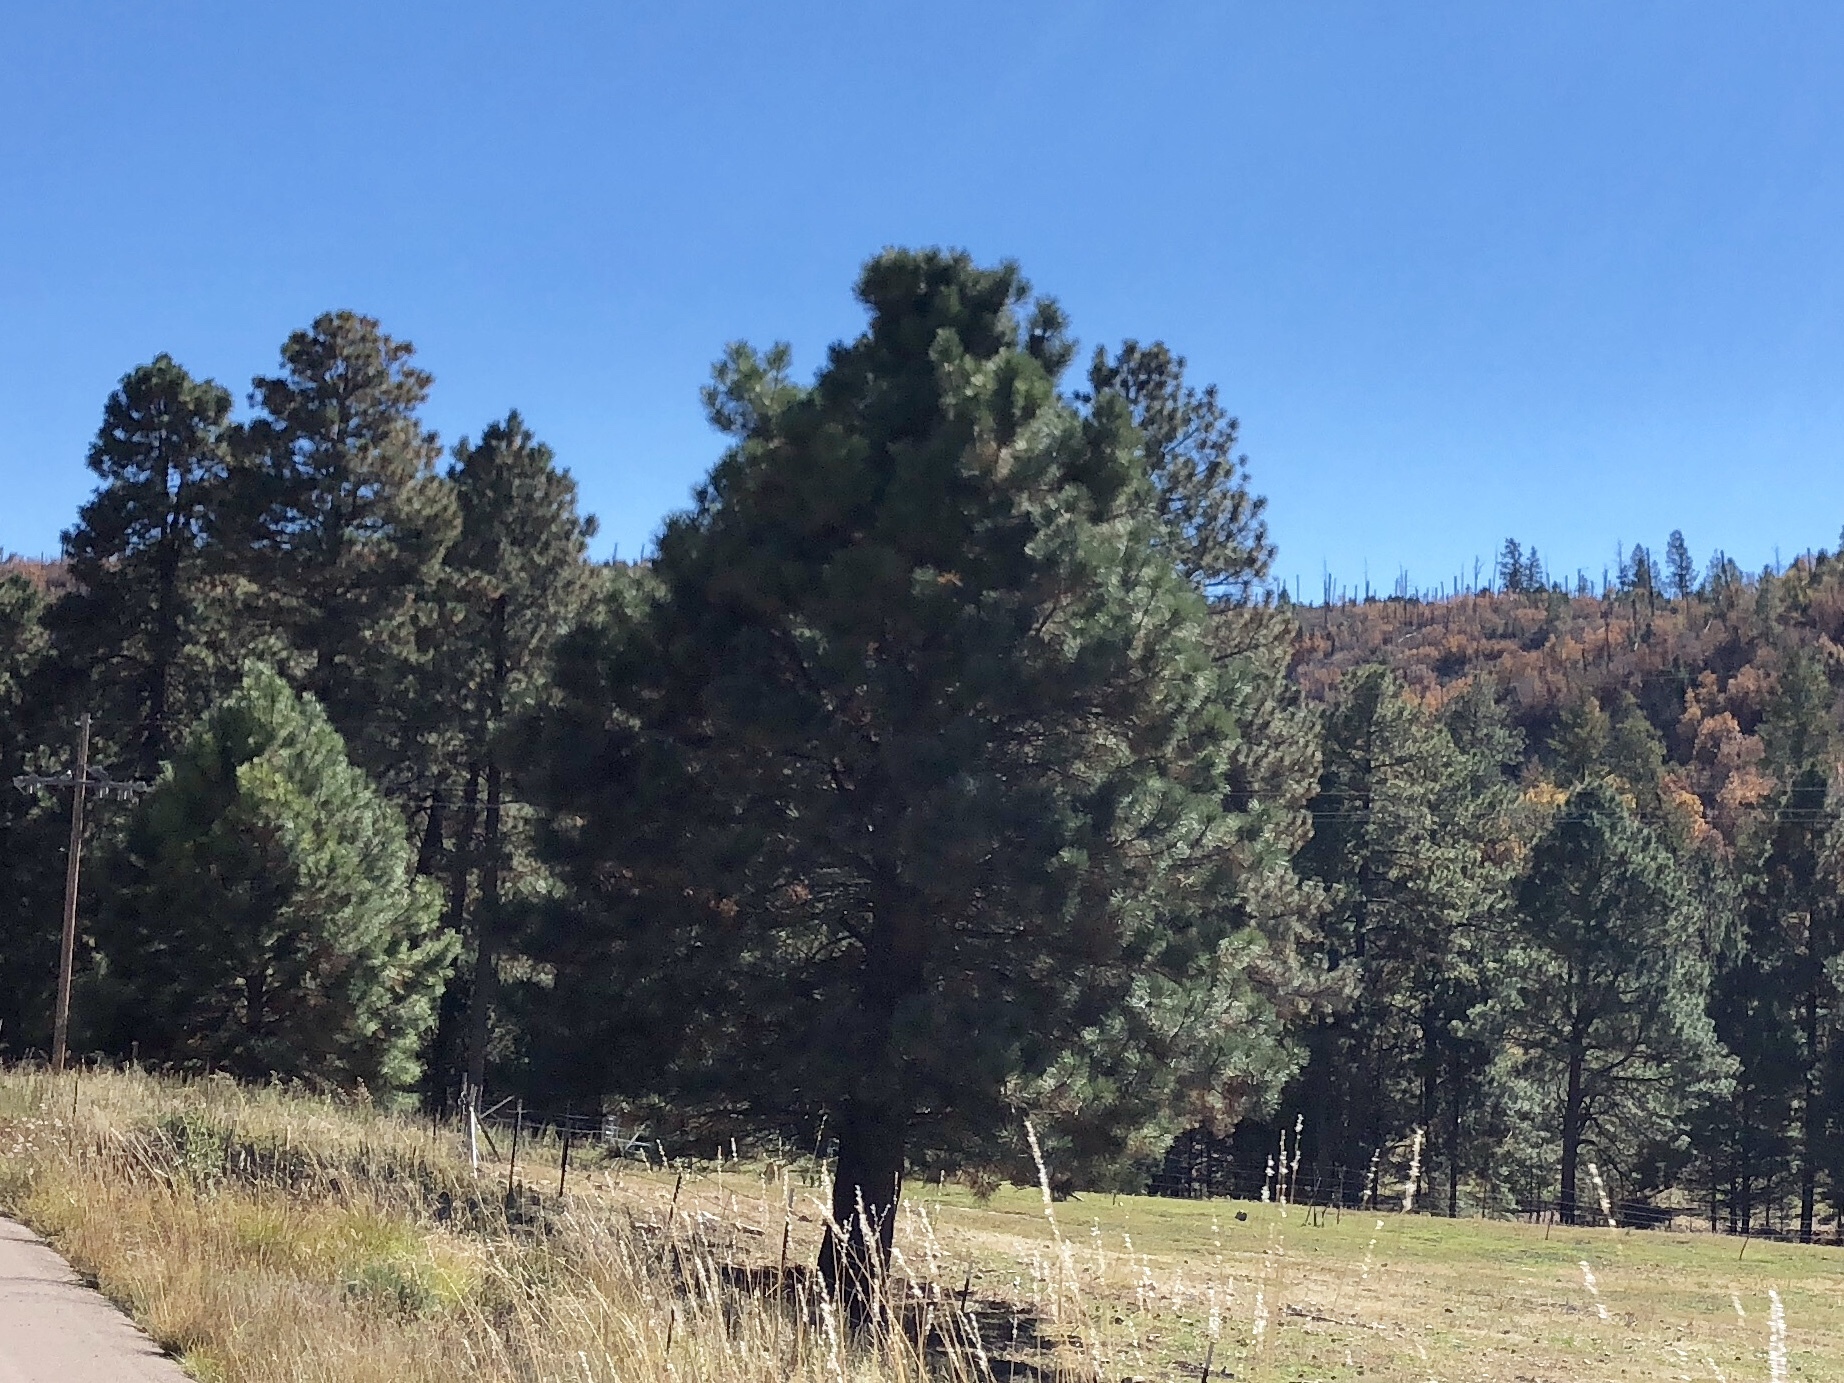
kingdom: Plantae
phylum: Tracheophyta
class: Pinopsida
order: Pinales
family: Pinaceae
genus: Pinus
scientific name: Pinus ponderosa
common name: Western yellow-pine
